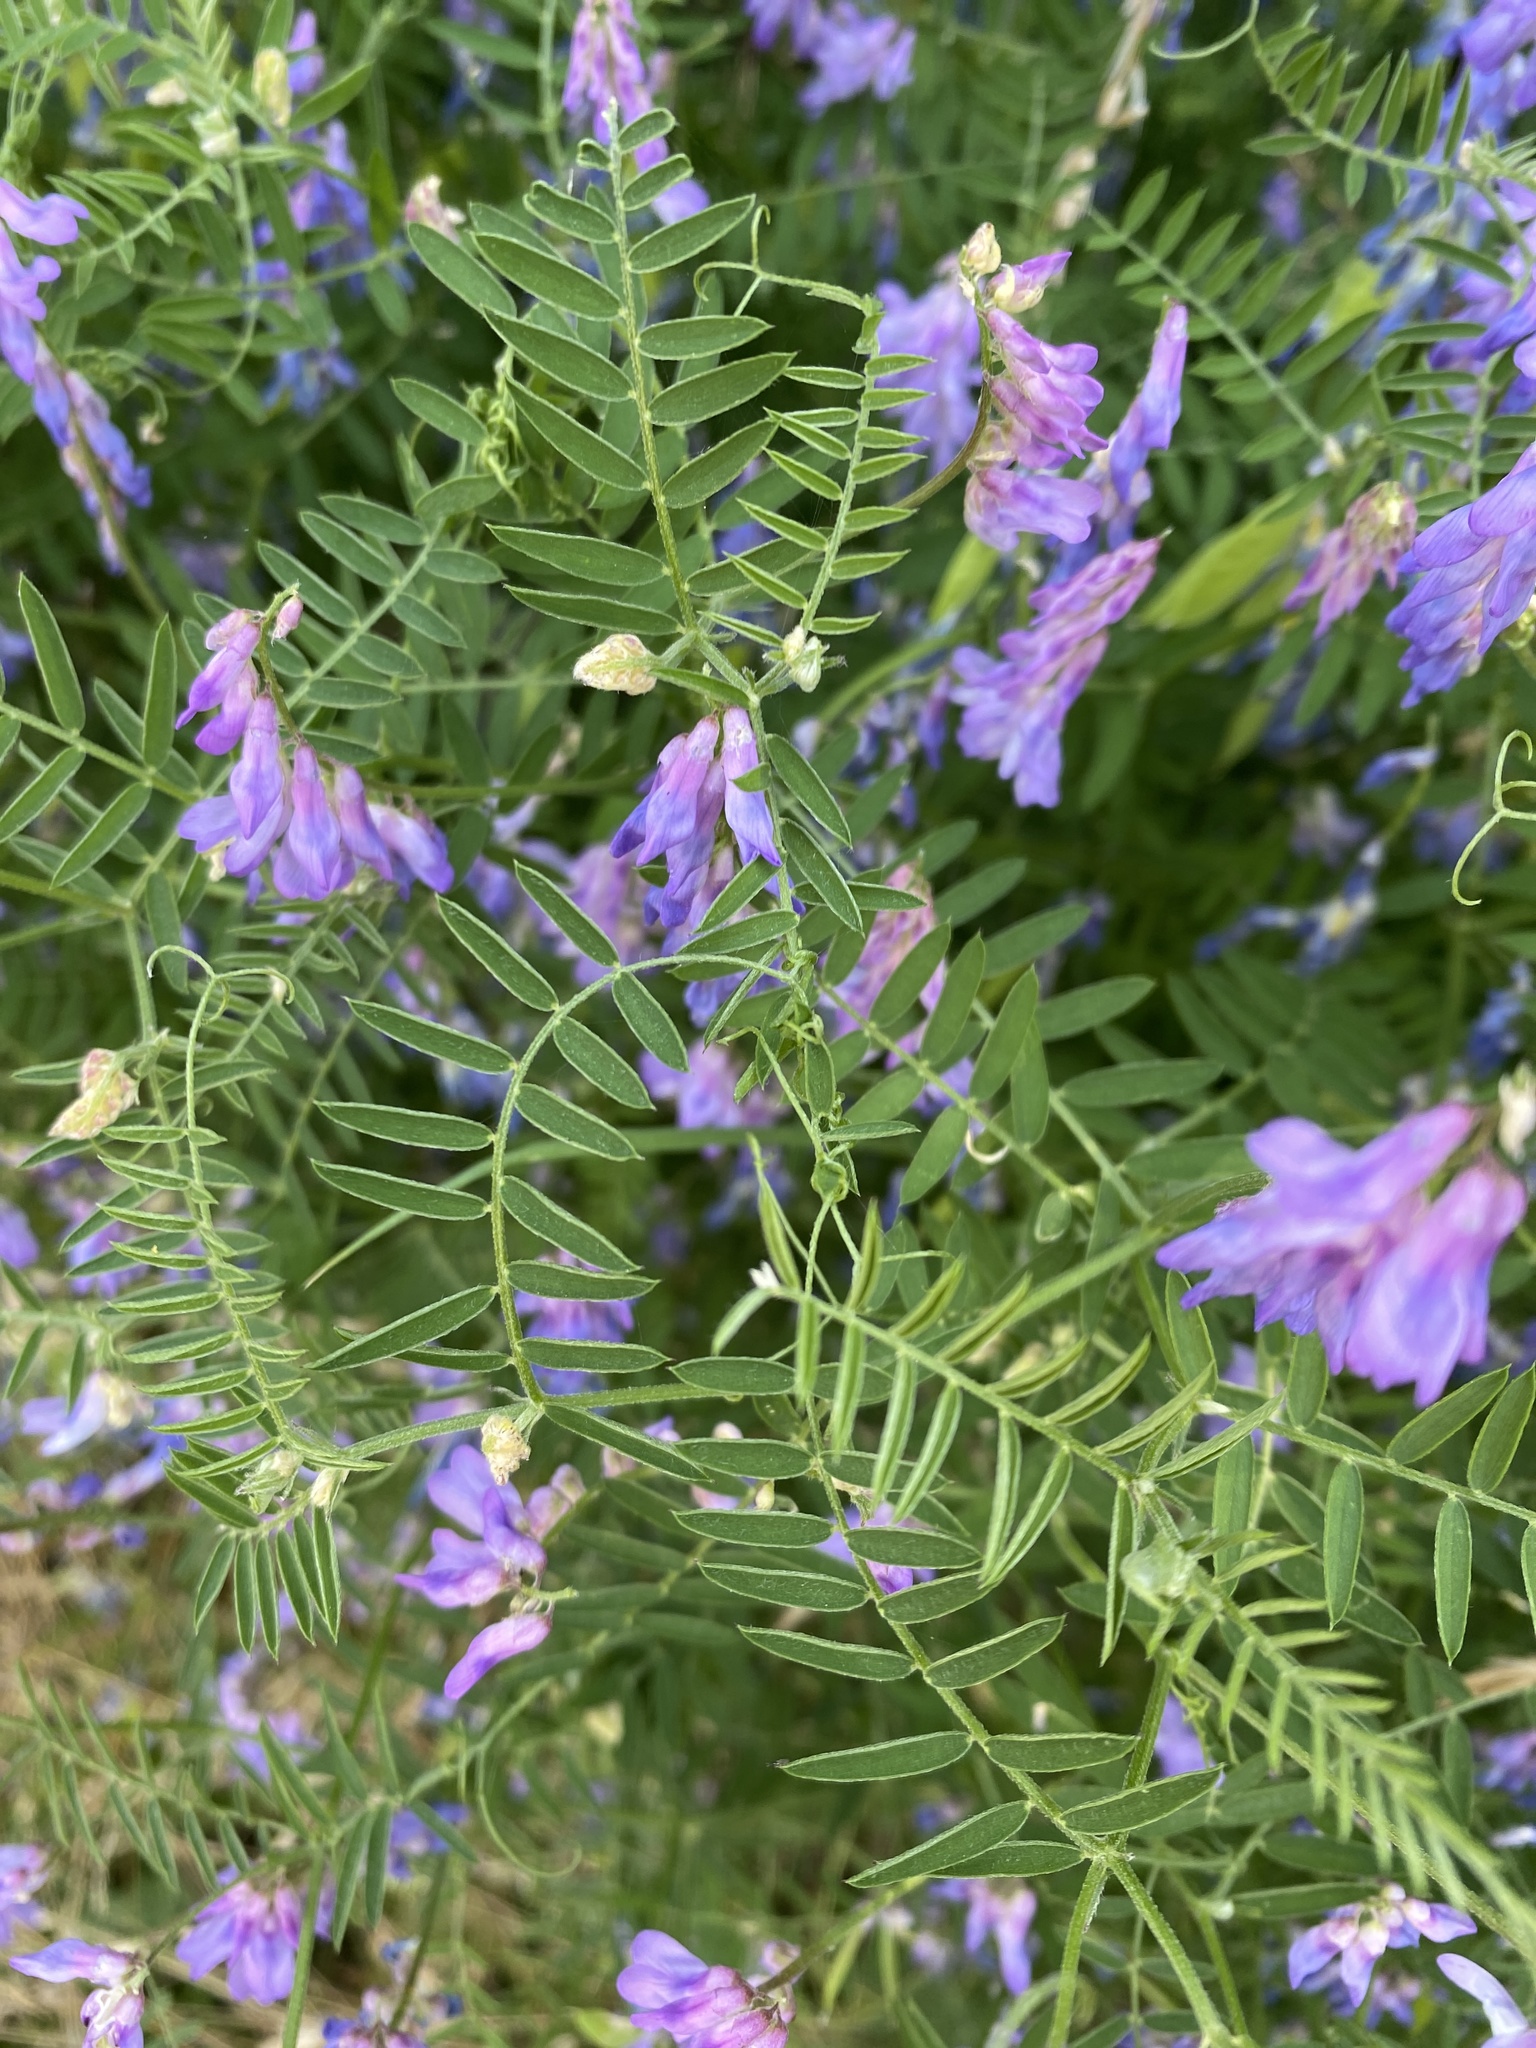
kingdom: Plantae
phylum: Tracheophyta
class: Magnoliopsida
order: Fabales
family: Fabaceae
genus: Vicia
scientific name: Vicia cracca
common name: Bird vetch
